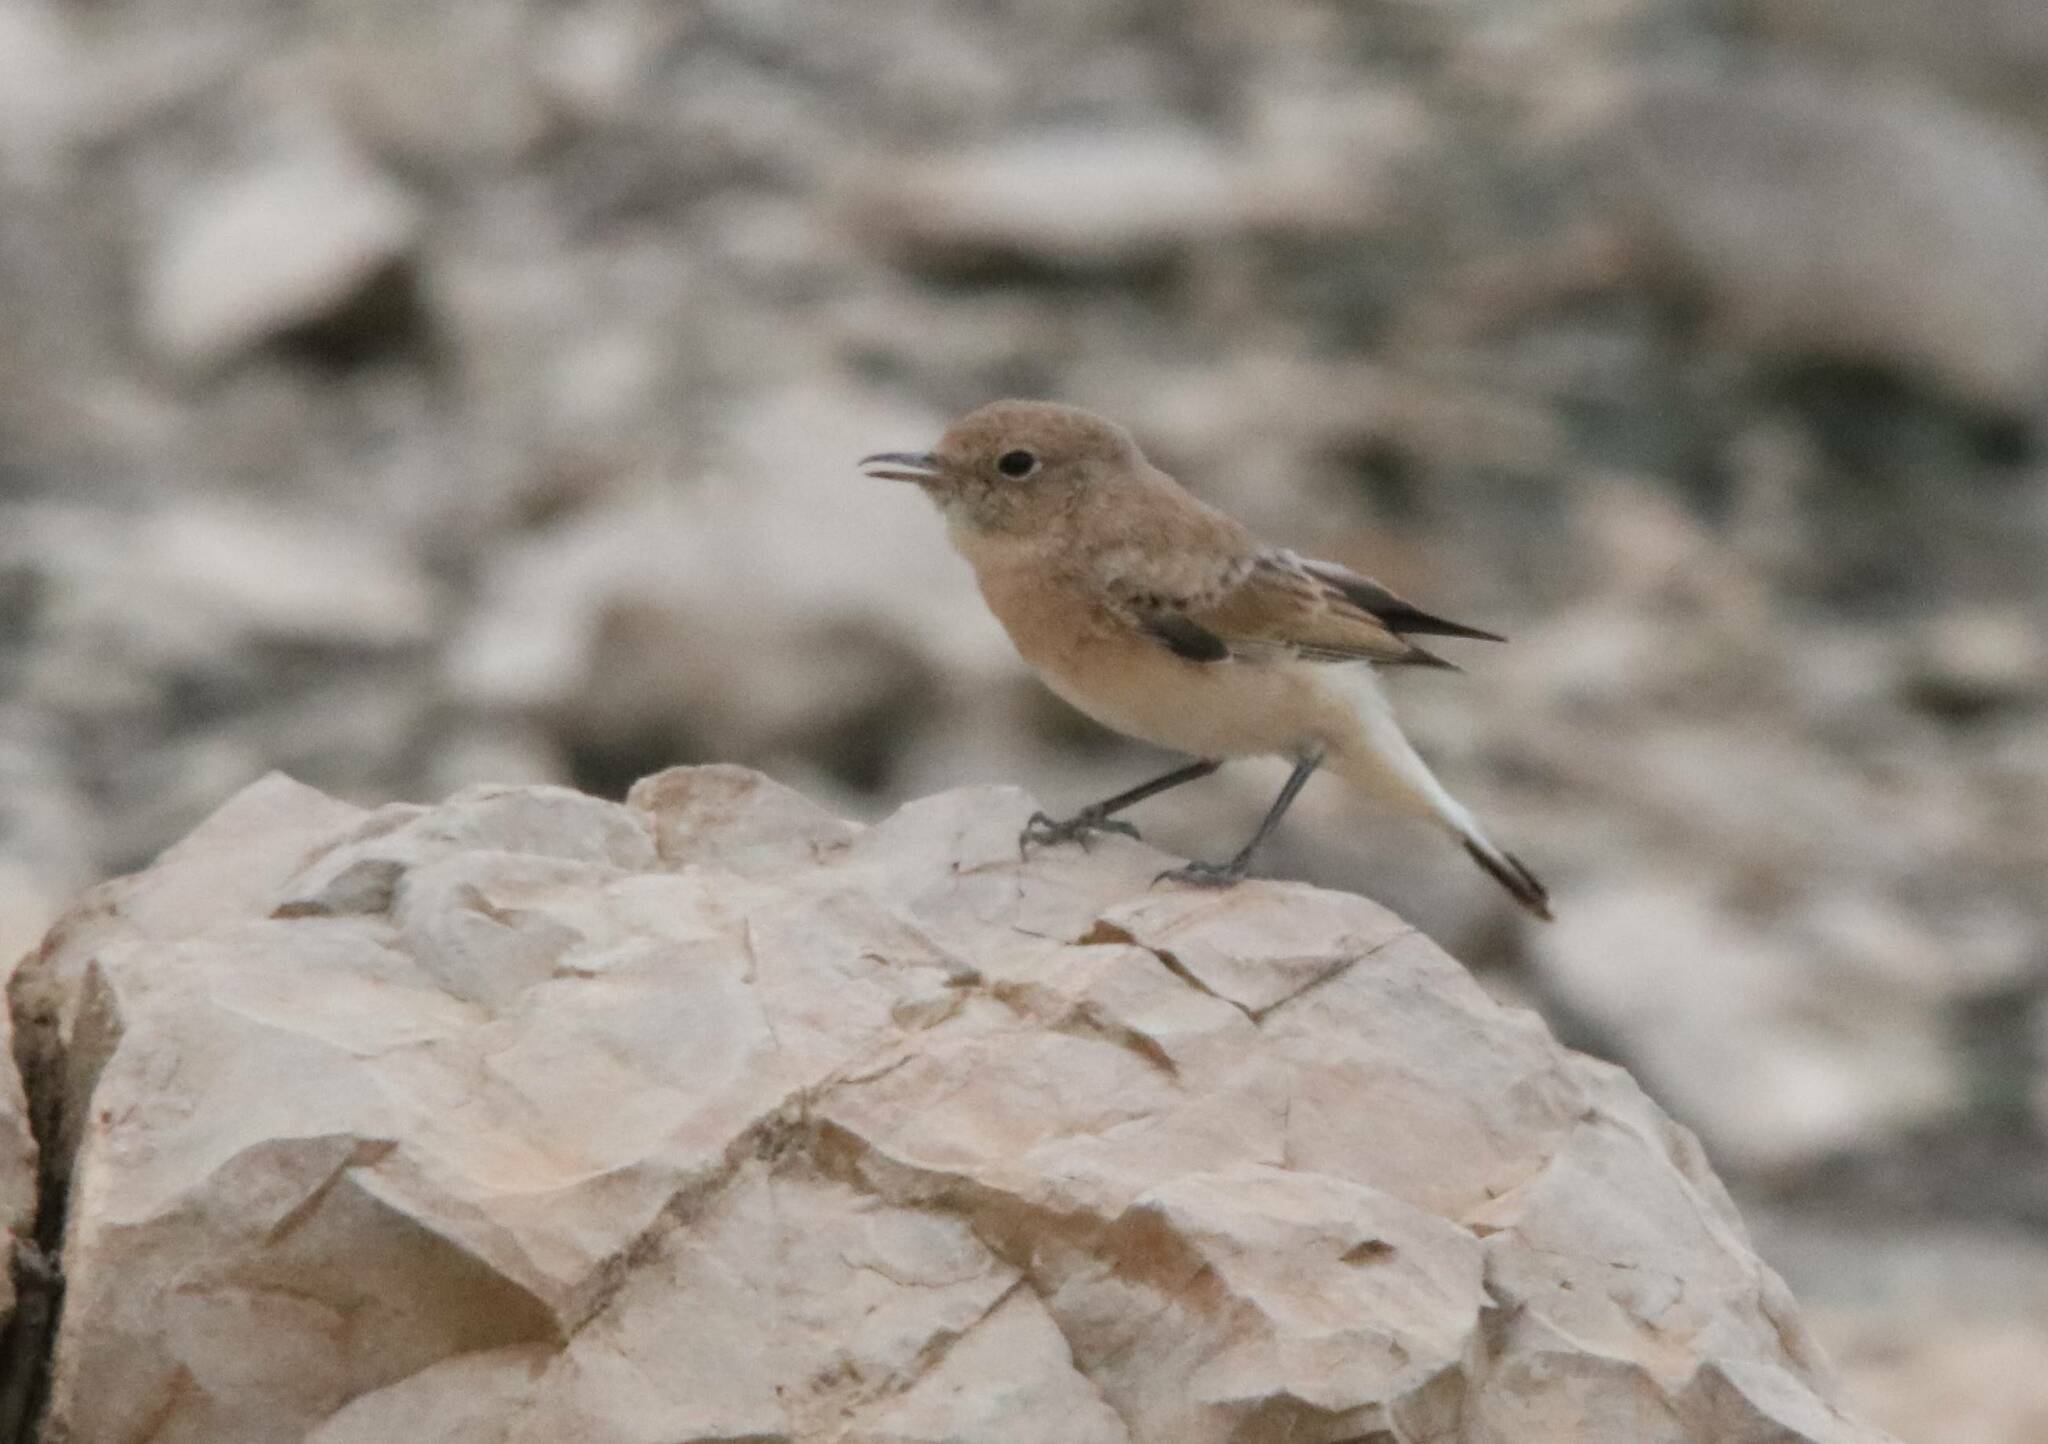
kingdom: Animalia
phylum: Chordata
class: Aves
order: Passeriformes
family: Muscicapidae
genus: Oenanthe
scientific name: Oenanthe hispanica
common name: Black-eared wheatear
